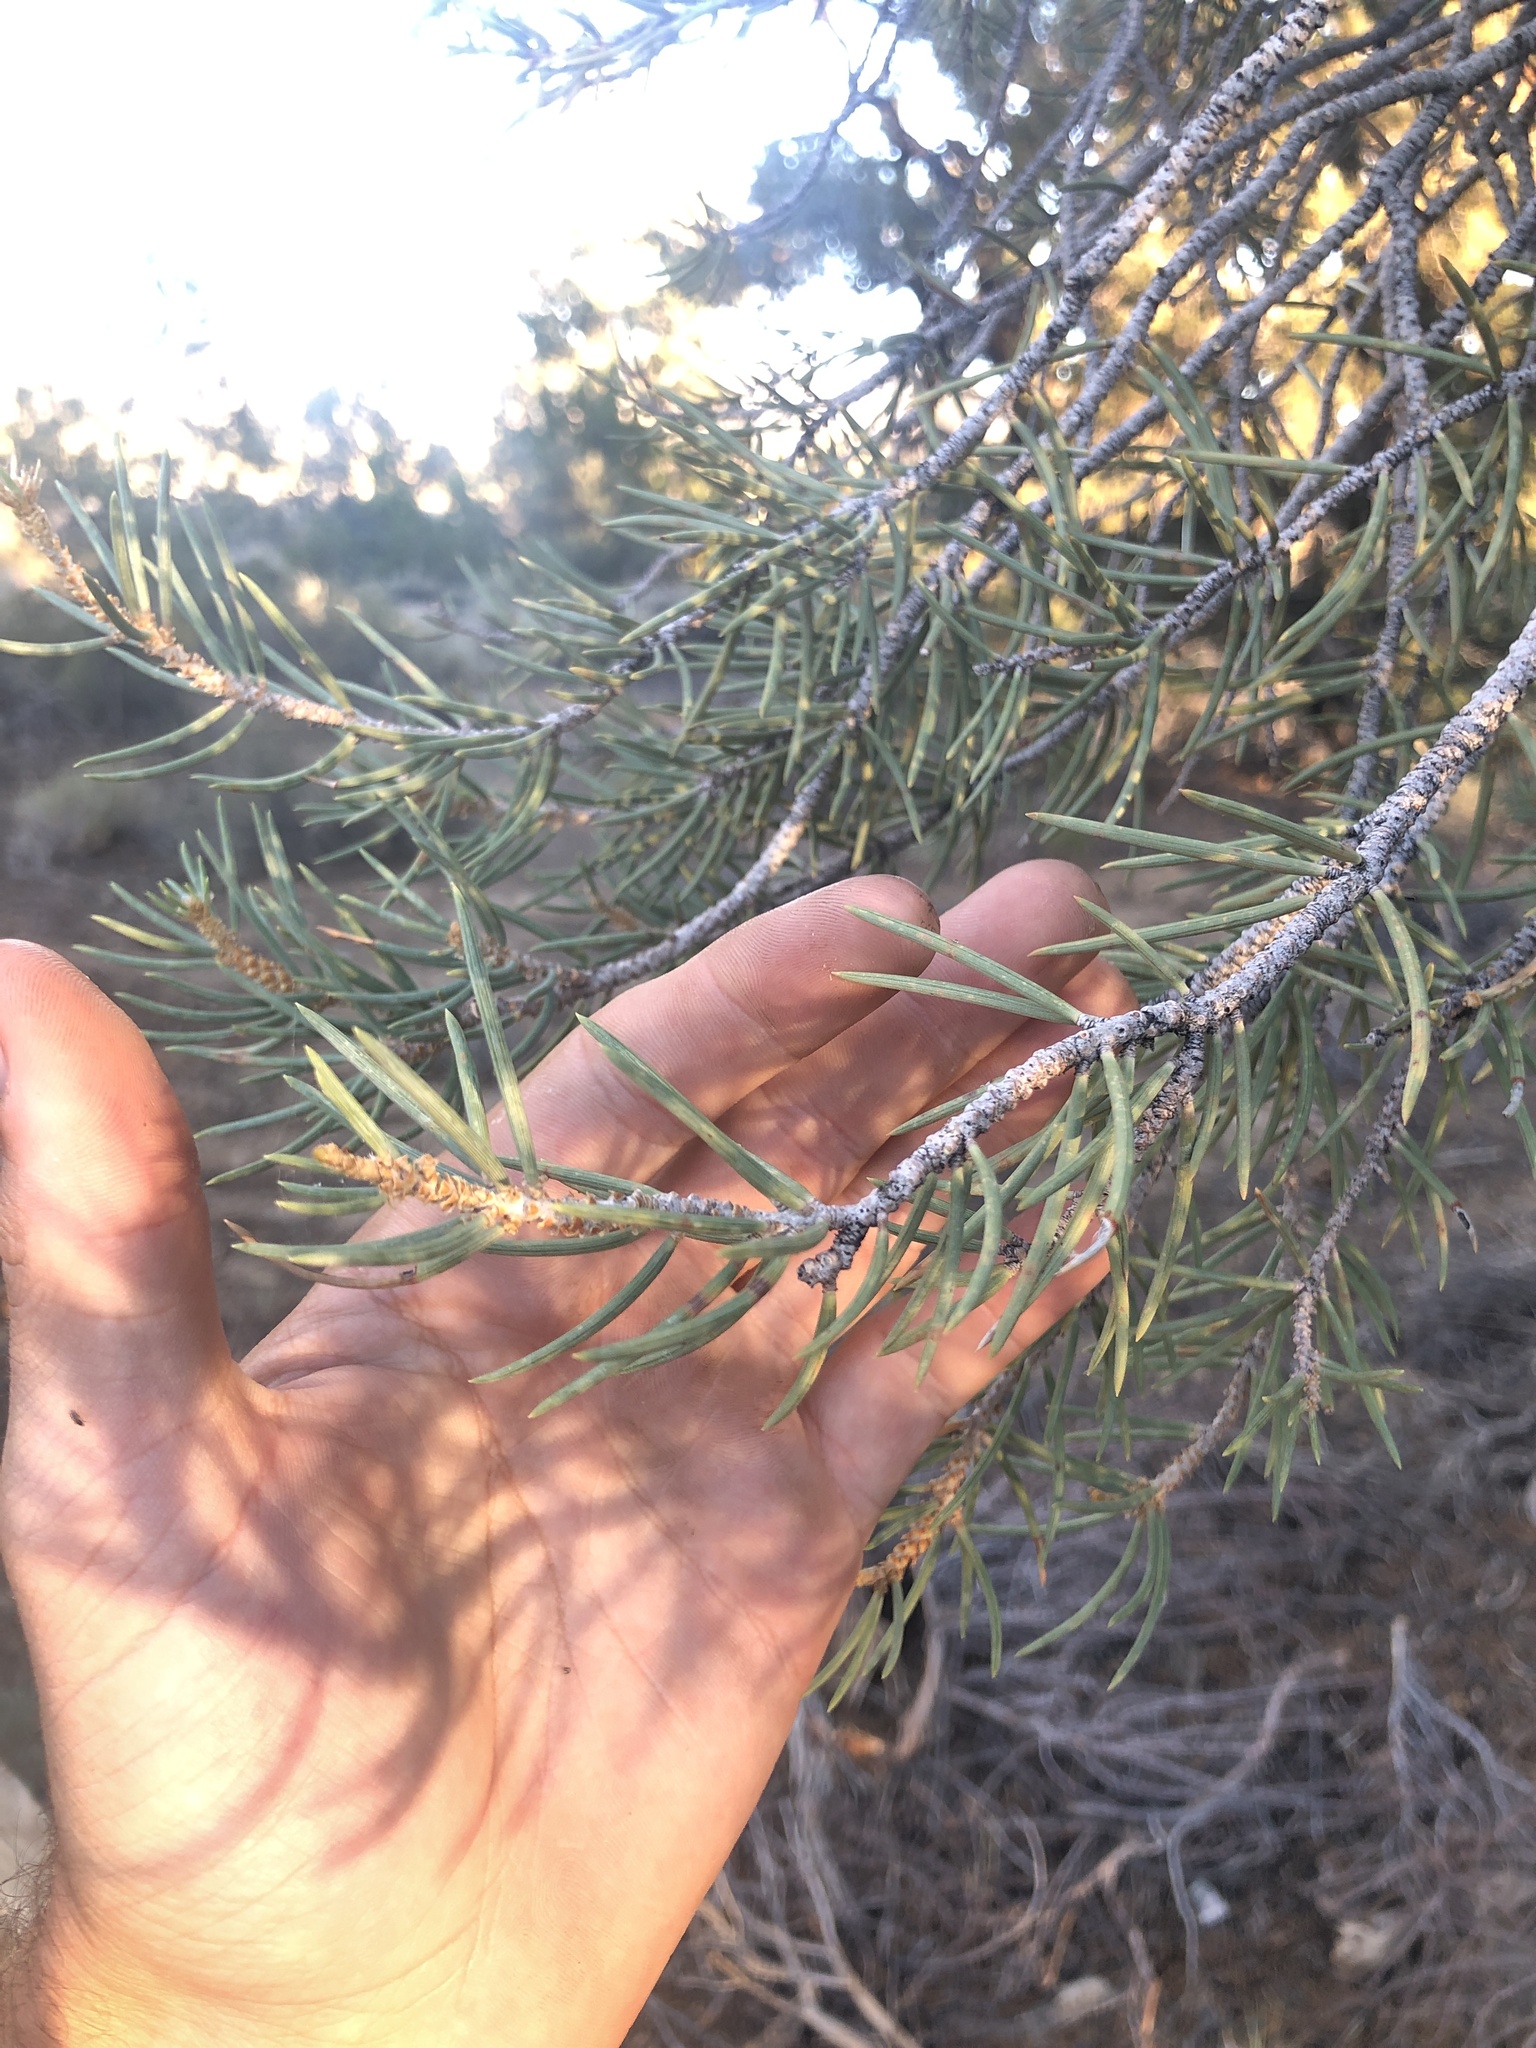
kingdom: Plantae
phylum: Tracheophyta
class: Pinopsida
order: Pinales
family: Pinaceae
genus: Pinus
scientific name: Pinus monophylla
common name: One-leaved nut pine
